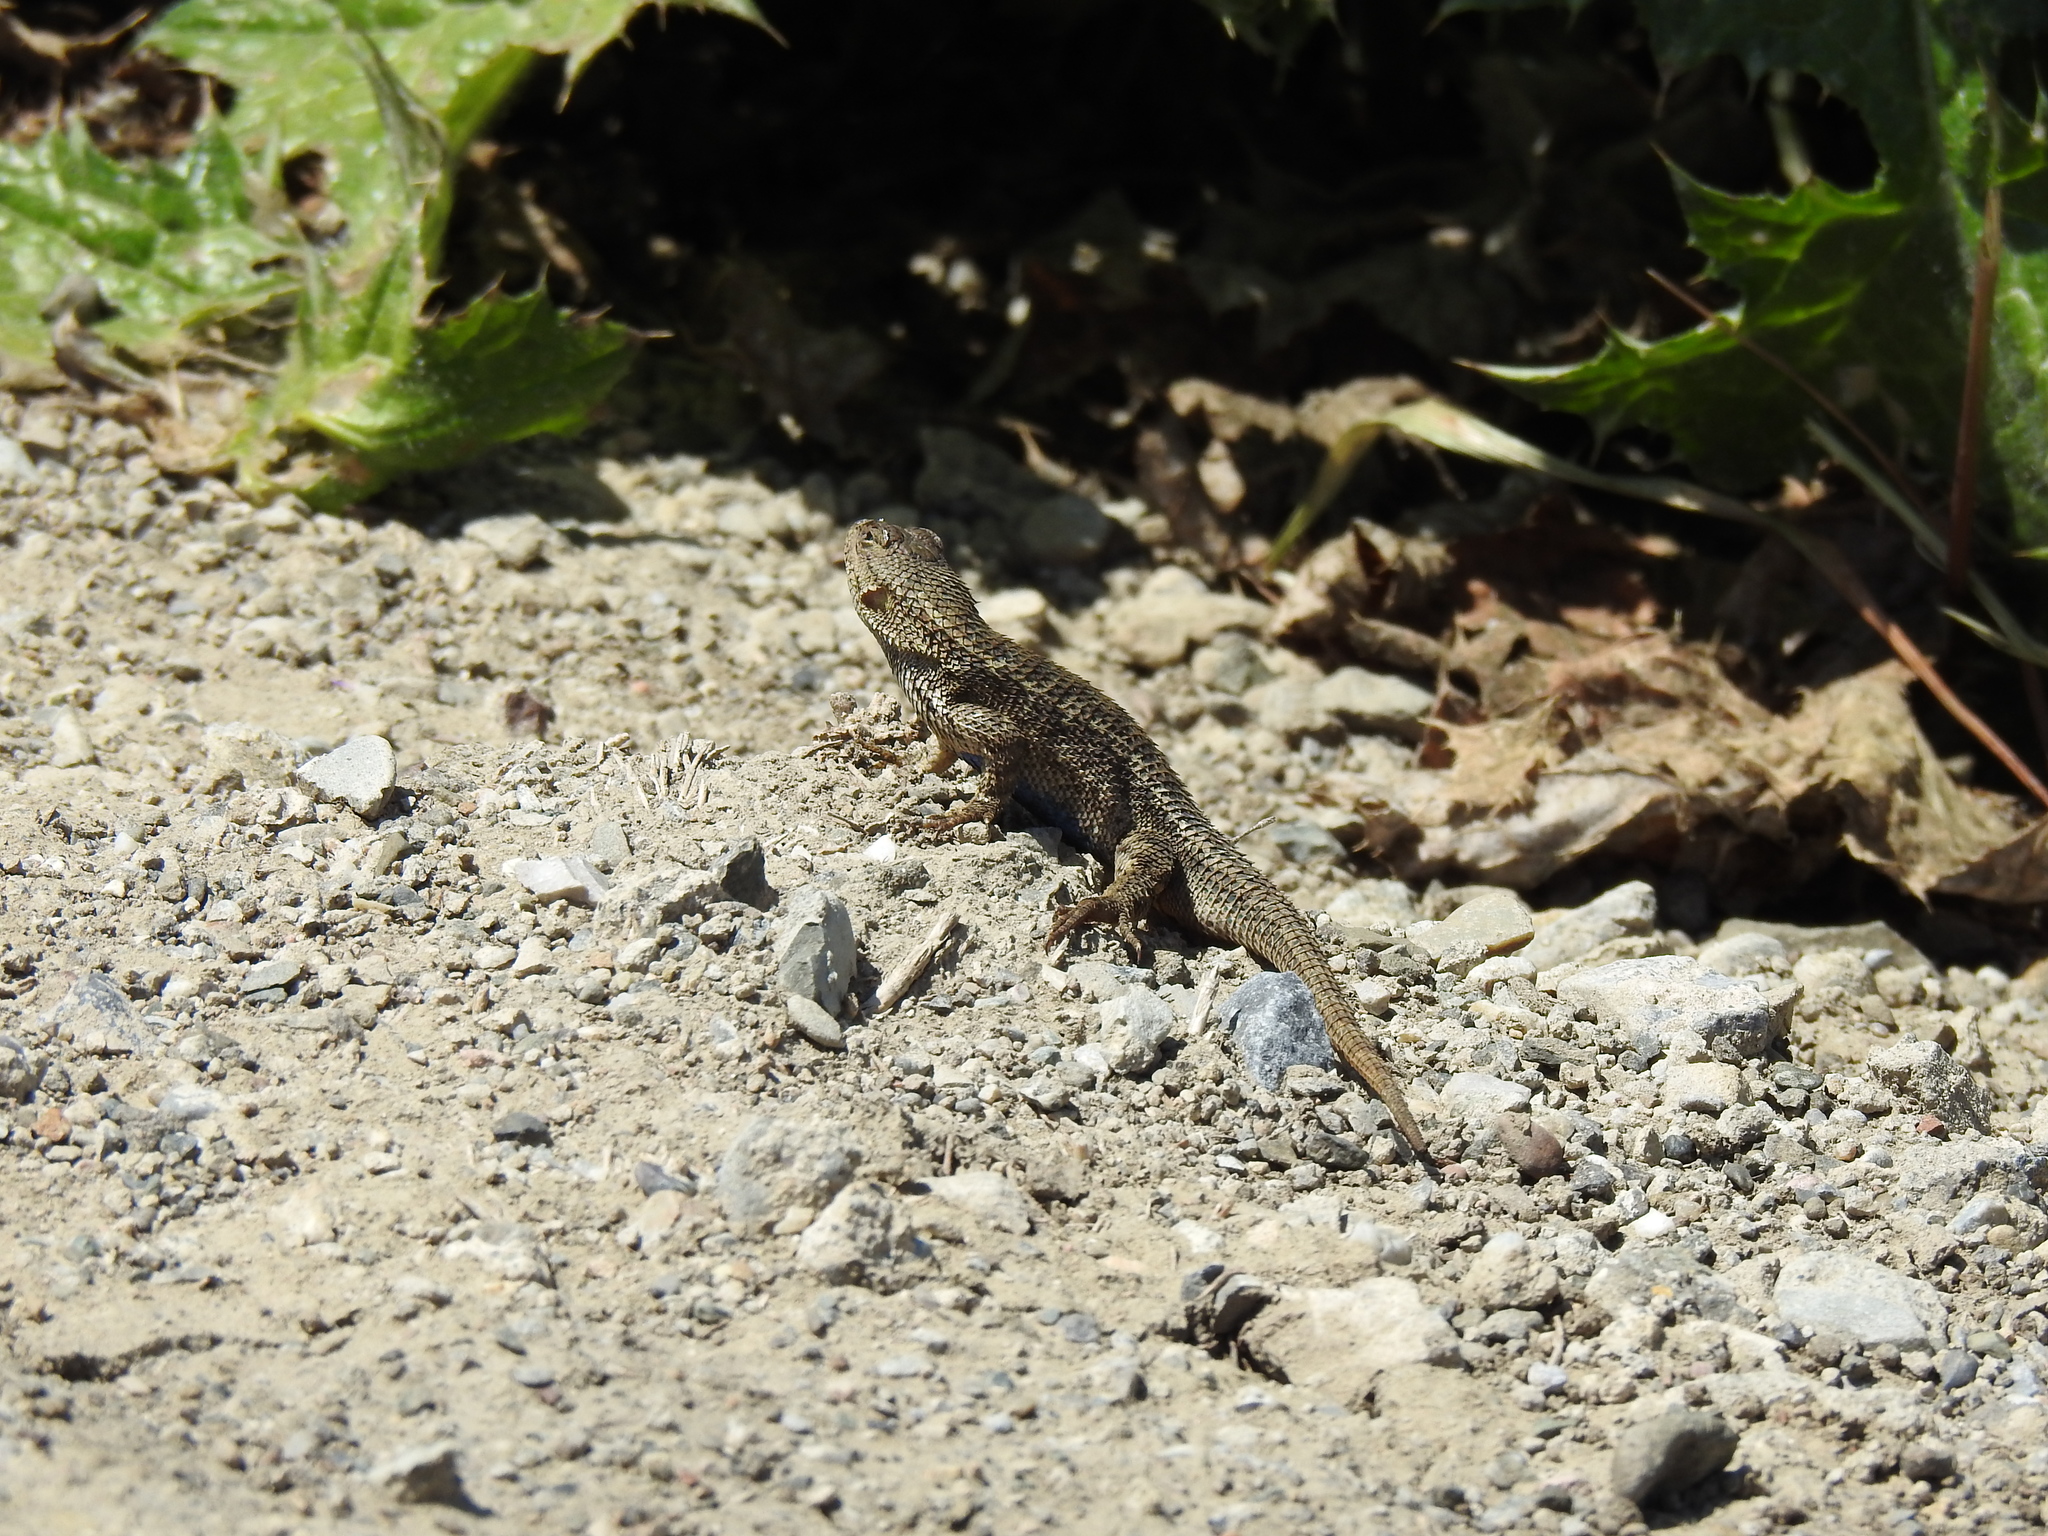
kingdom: Animalia
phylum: Chordata
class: Squamata
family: Phrynosomatidae
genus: Sceloporus
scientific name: Sceloporus occidentalis
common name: Western fence lizard
